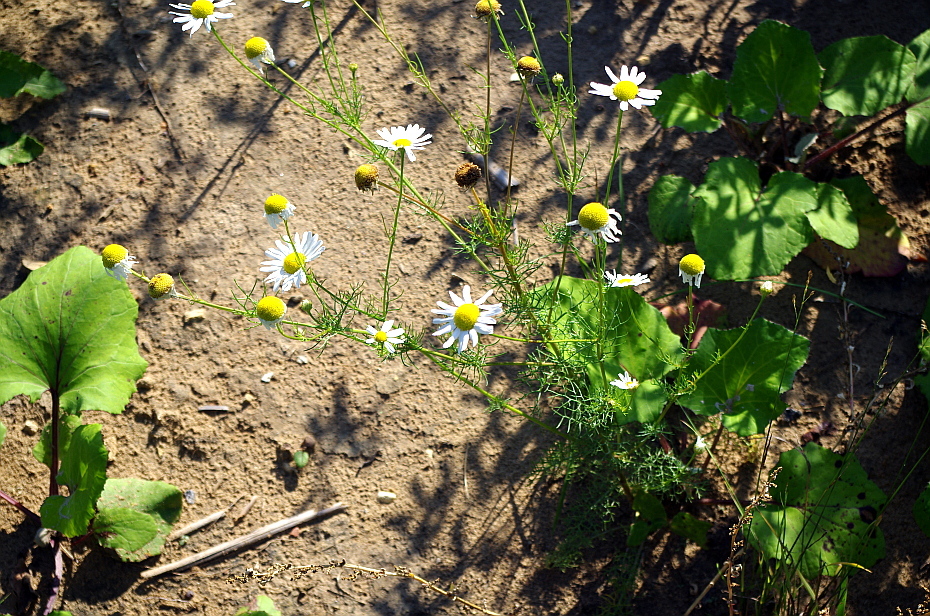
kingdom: Plantae
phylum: Tracheophyta
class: Magnoliopsida
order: Asterales
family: Asteraceae
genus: Tripleurospermum
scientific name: Tripleurospermum inodorum
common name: Scentless mayweed
